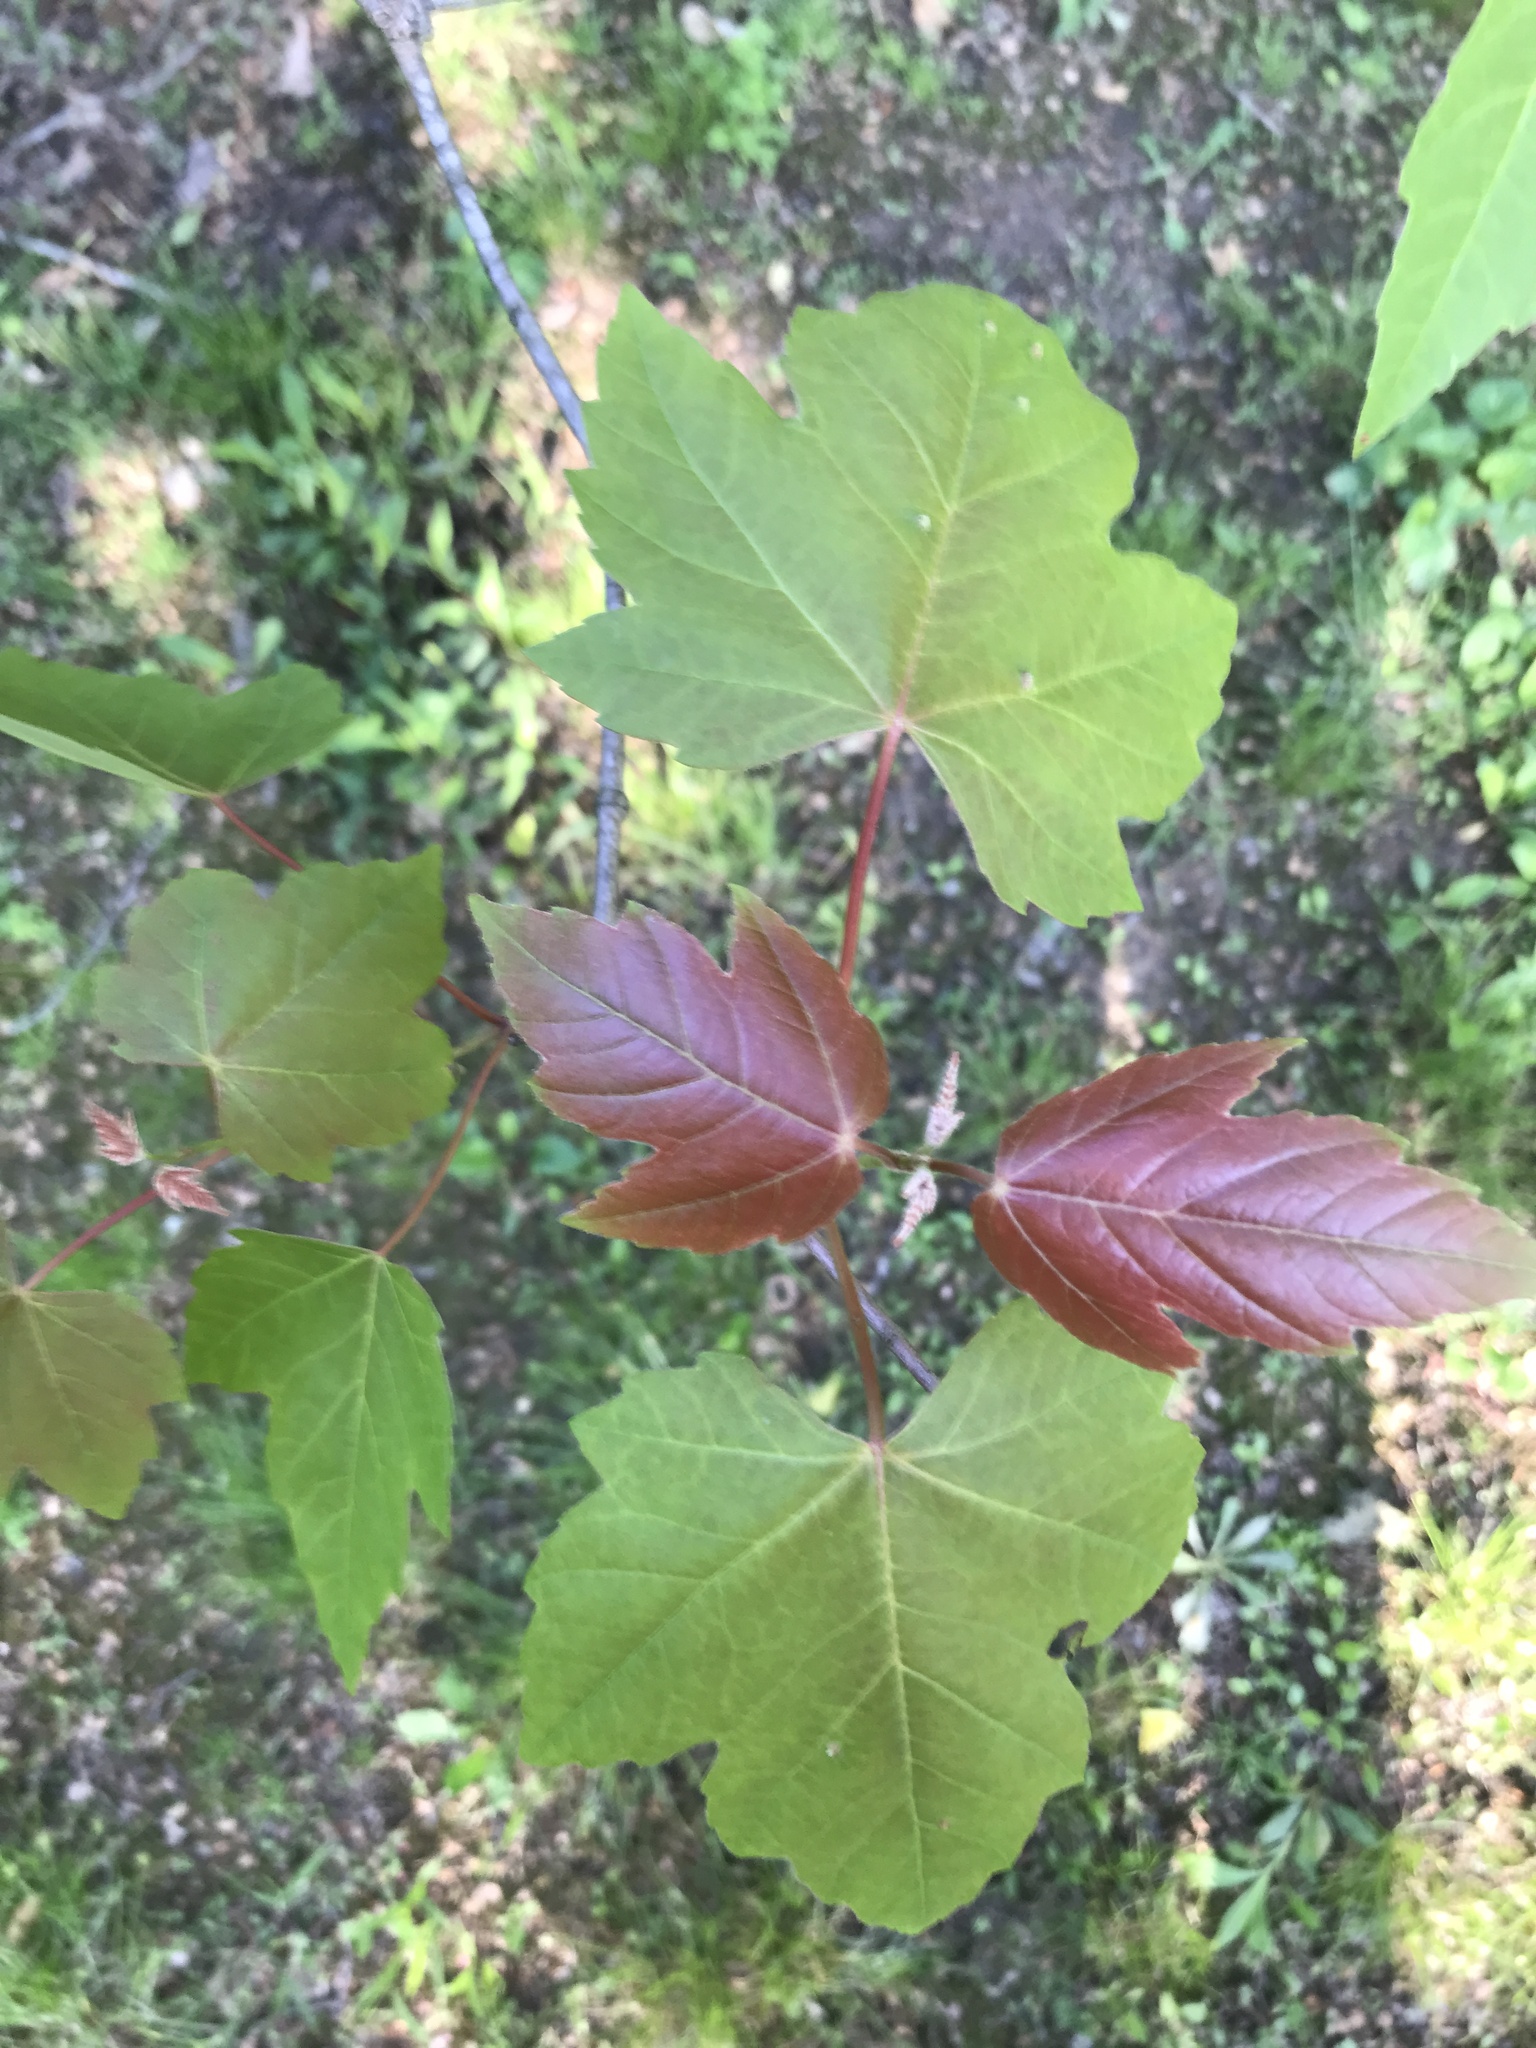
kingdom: Plantae
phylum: Tracheophyta
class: Magnoliopsida
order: Sapindales
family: Sapindaceae
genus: Acer
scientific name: Acer rubrum
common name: Red maple
